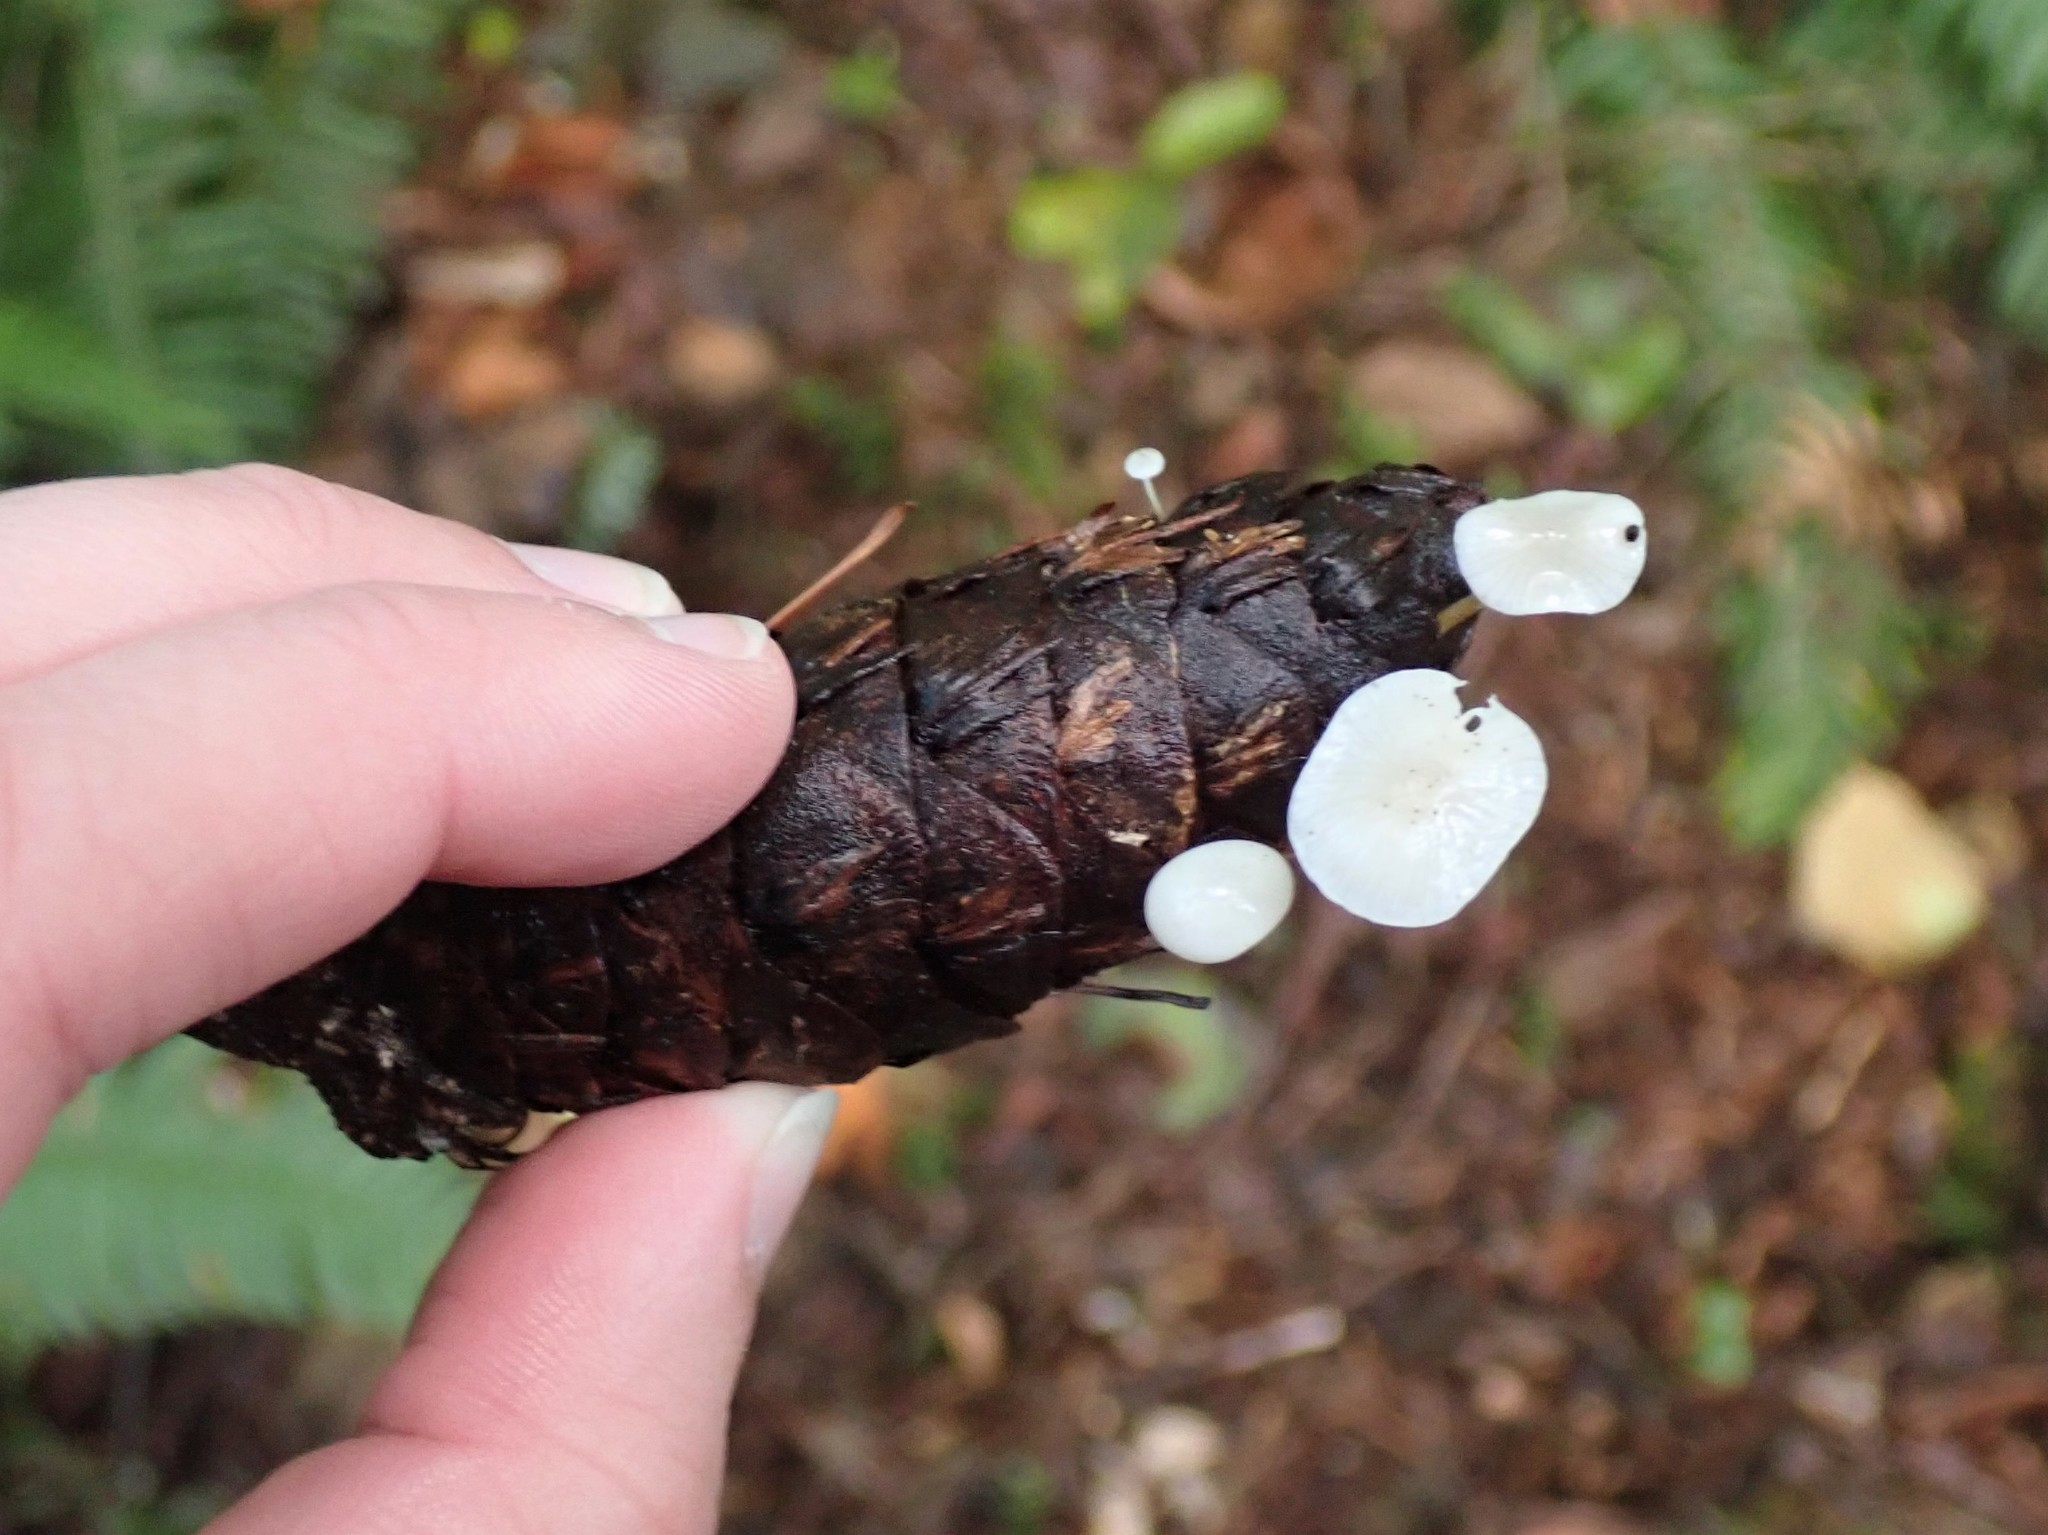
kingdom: Fungi
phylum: Basidiomycota
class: Agaricomycetes
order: Agaricales
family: Physalacriaceae
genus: Strobilurus
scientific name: Strobilurus trullisatus
